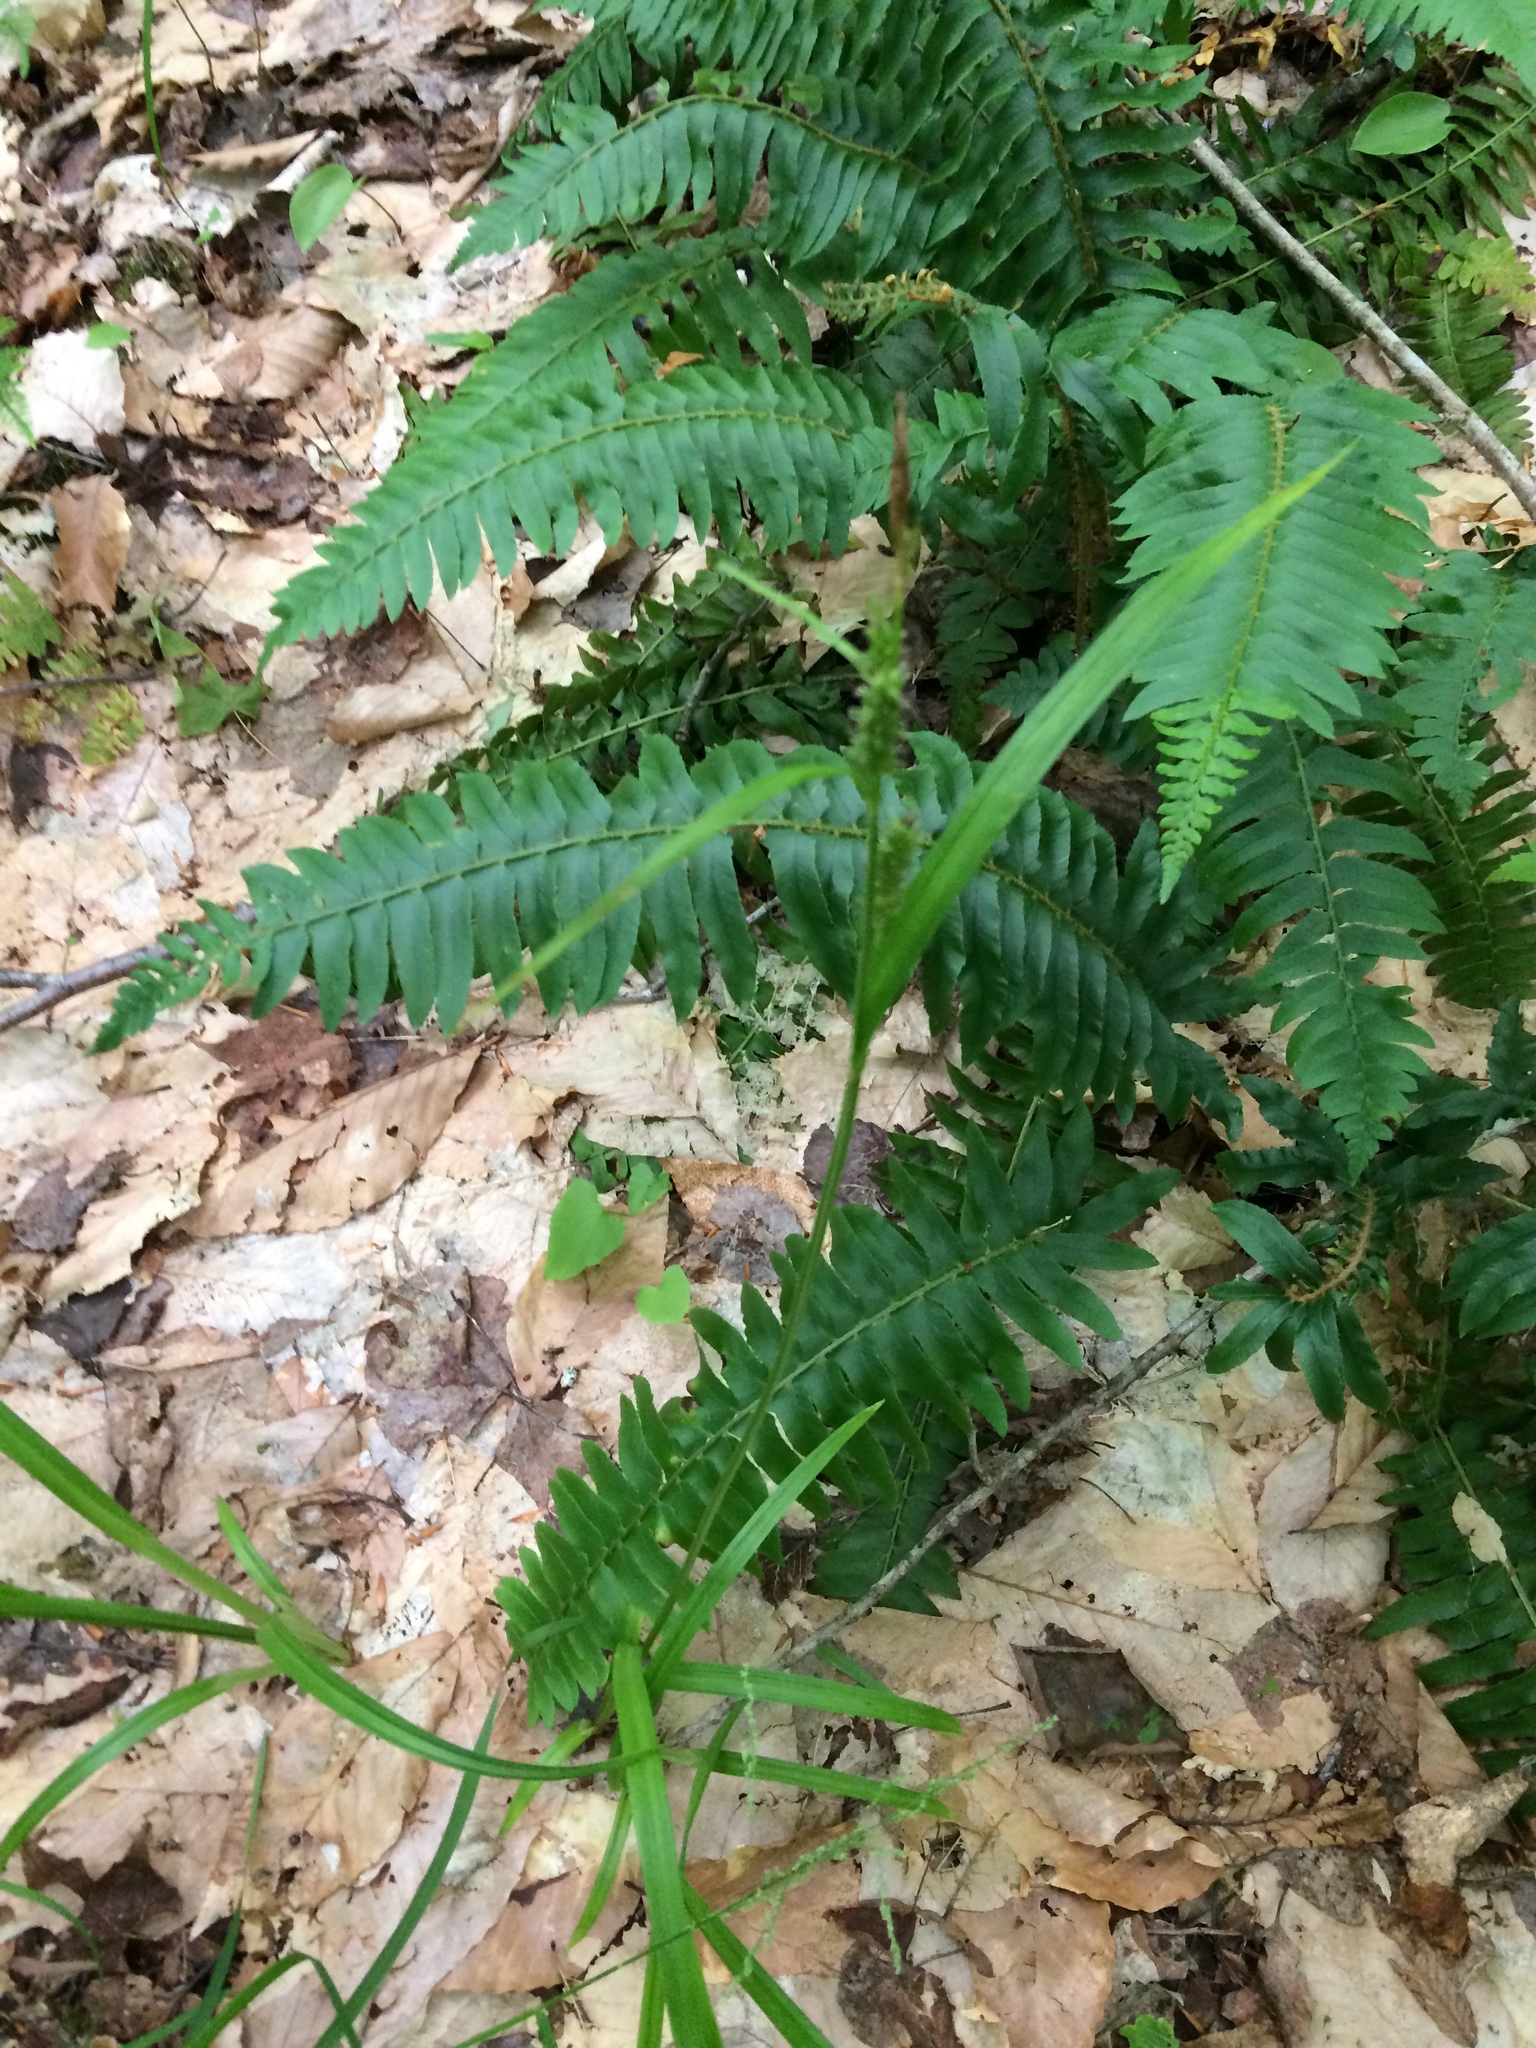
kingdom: Plantae
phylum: Tracheophyta
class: Liliopsida
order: Poales
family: Cyperaceae
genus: Carex
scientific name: Carex scabrata
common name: Eastern rough sedge
